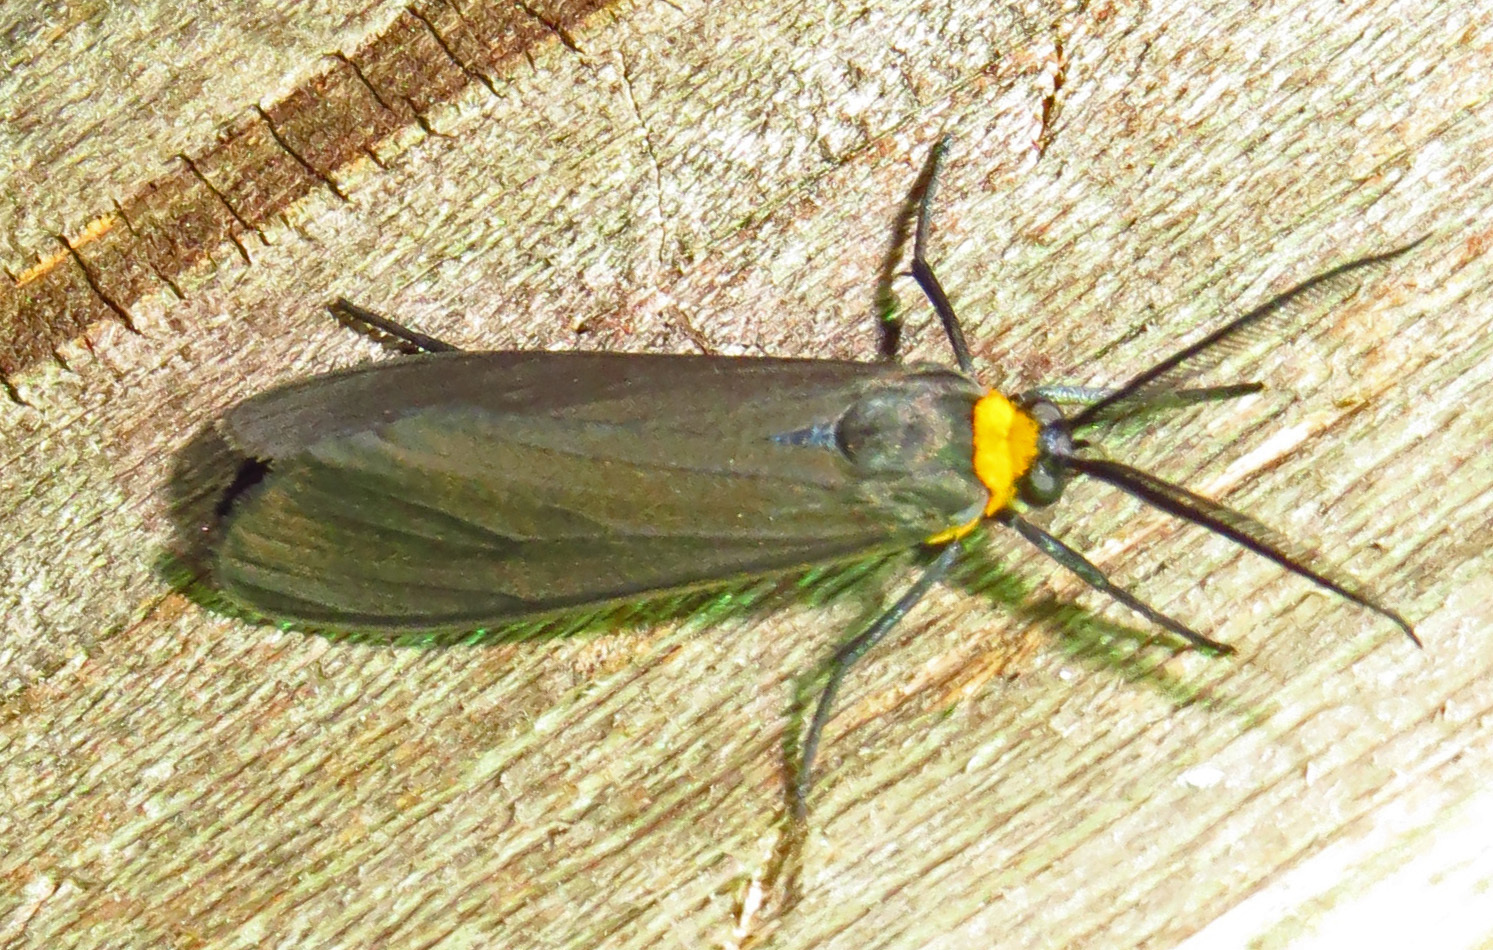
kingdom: Animalia
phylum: Arthropoda
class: Insecta
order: Lepidoptera
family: Erebidae
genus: Cisseps
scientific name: Cisseps fulvicollis
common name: Yellow-collared scape moth
